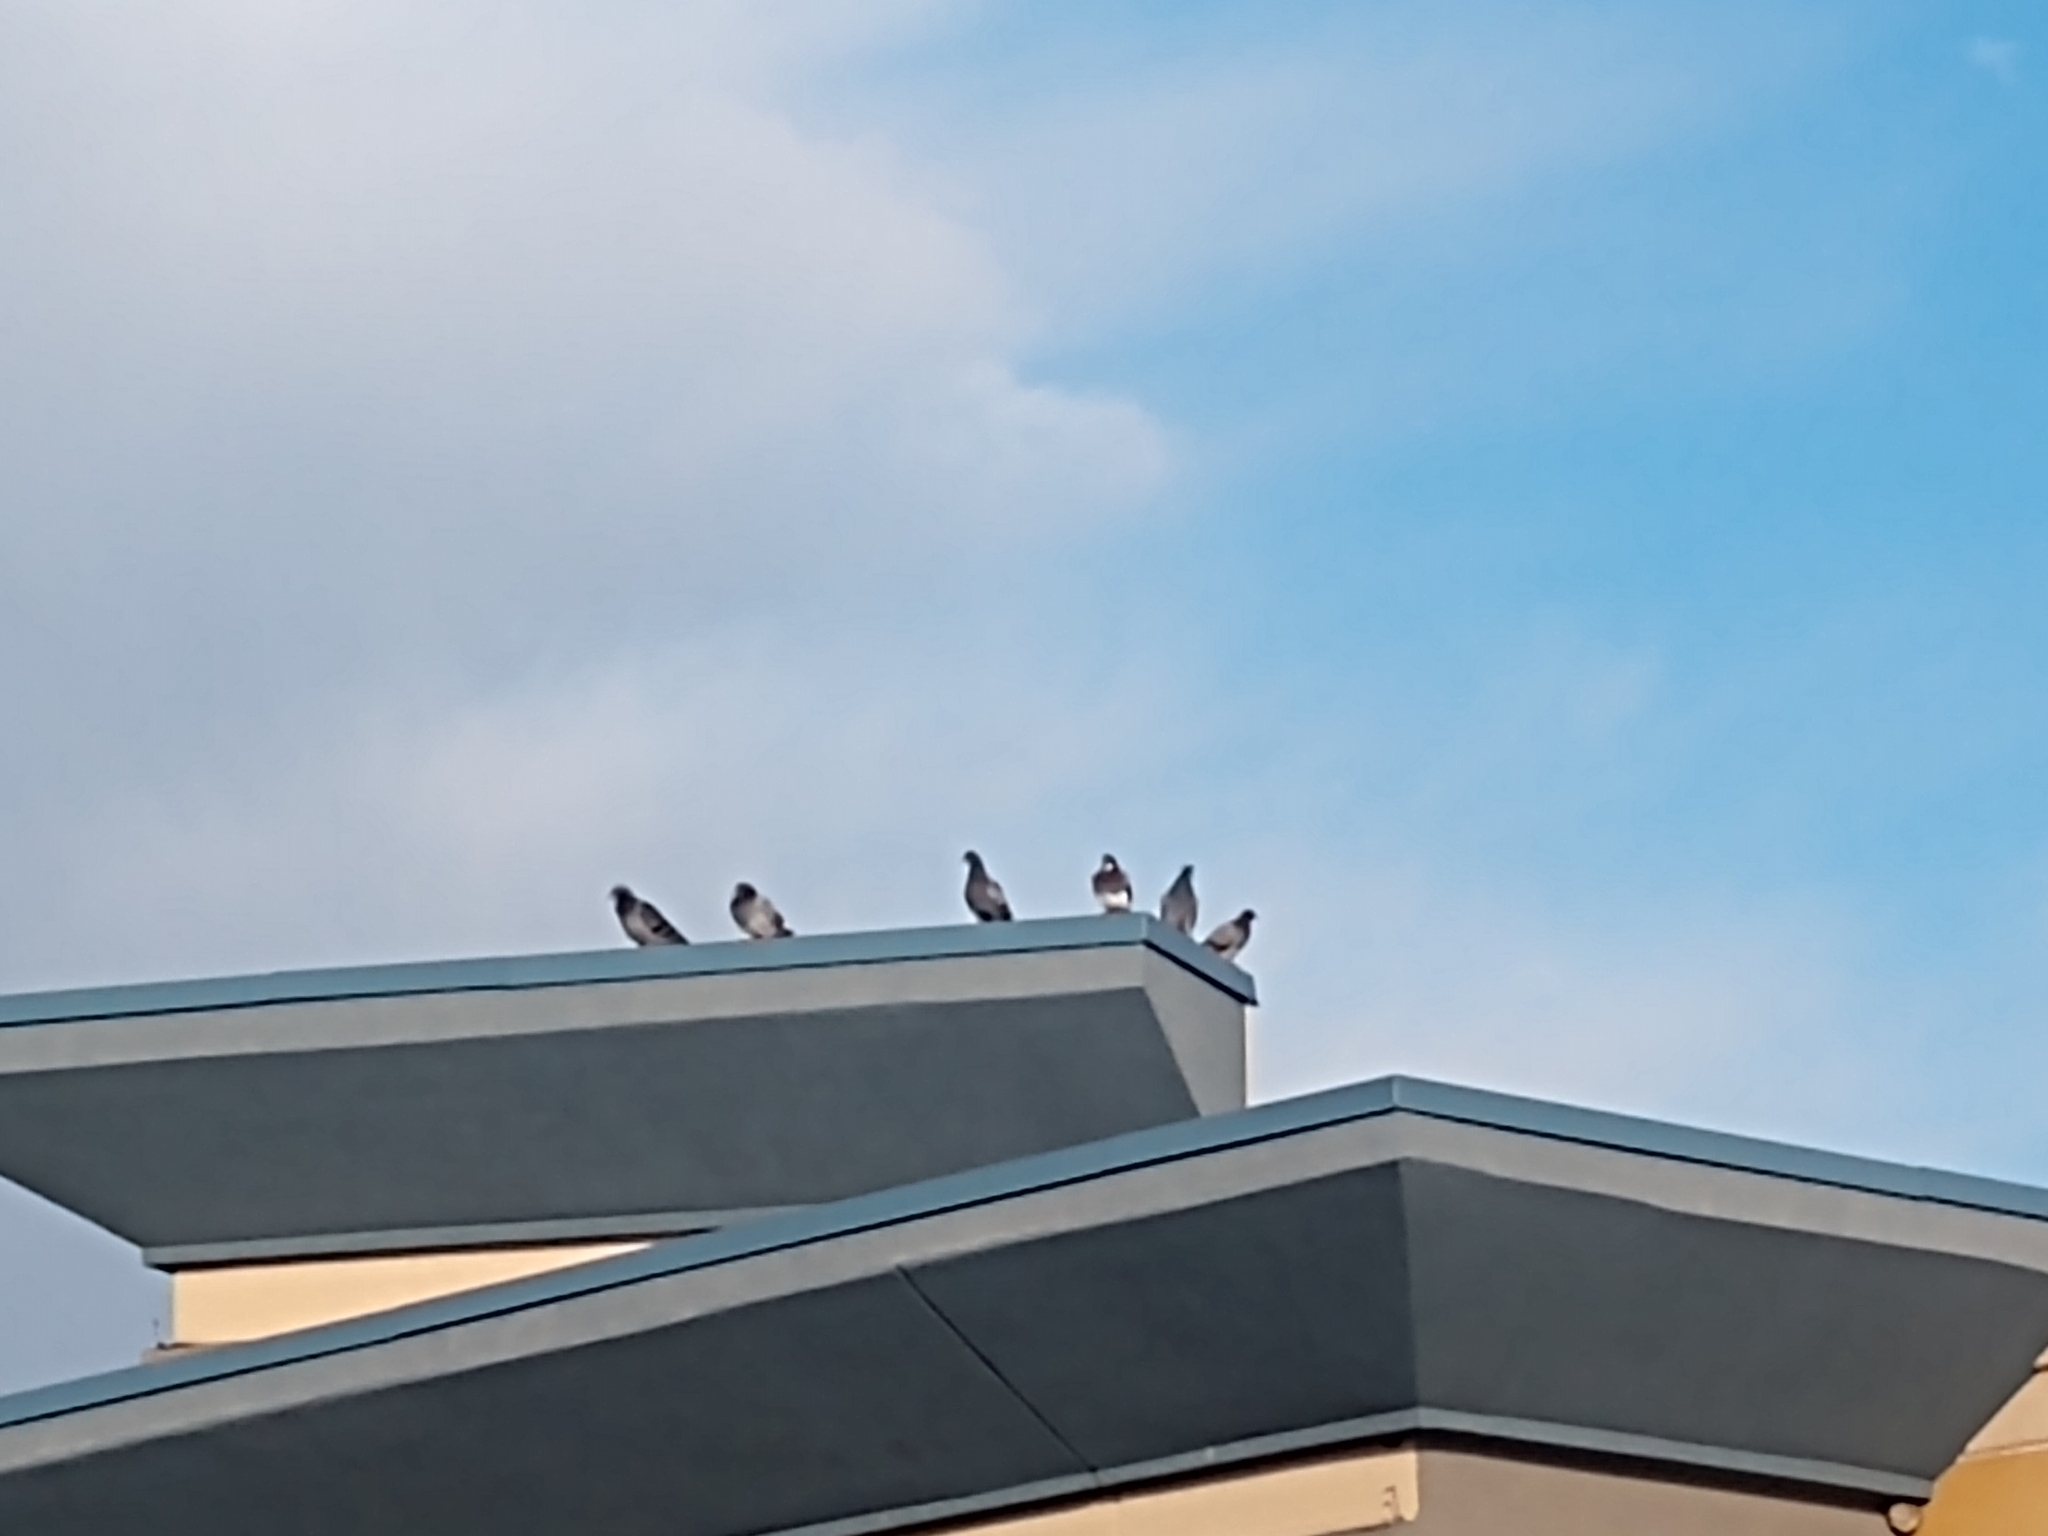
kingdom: Animalia
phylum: Chordata
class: Aves
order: Columbiformes
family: Columbidae
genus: Columba
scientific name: Columba livia
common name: Rock pigeon
